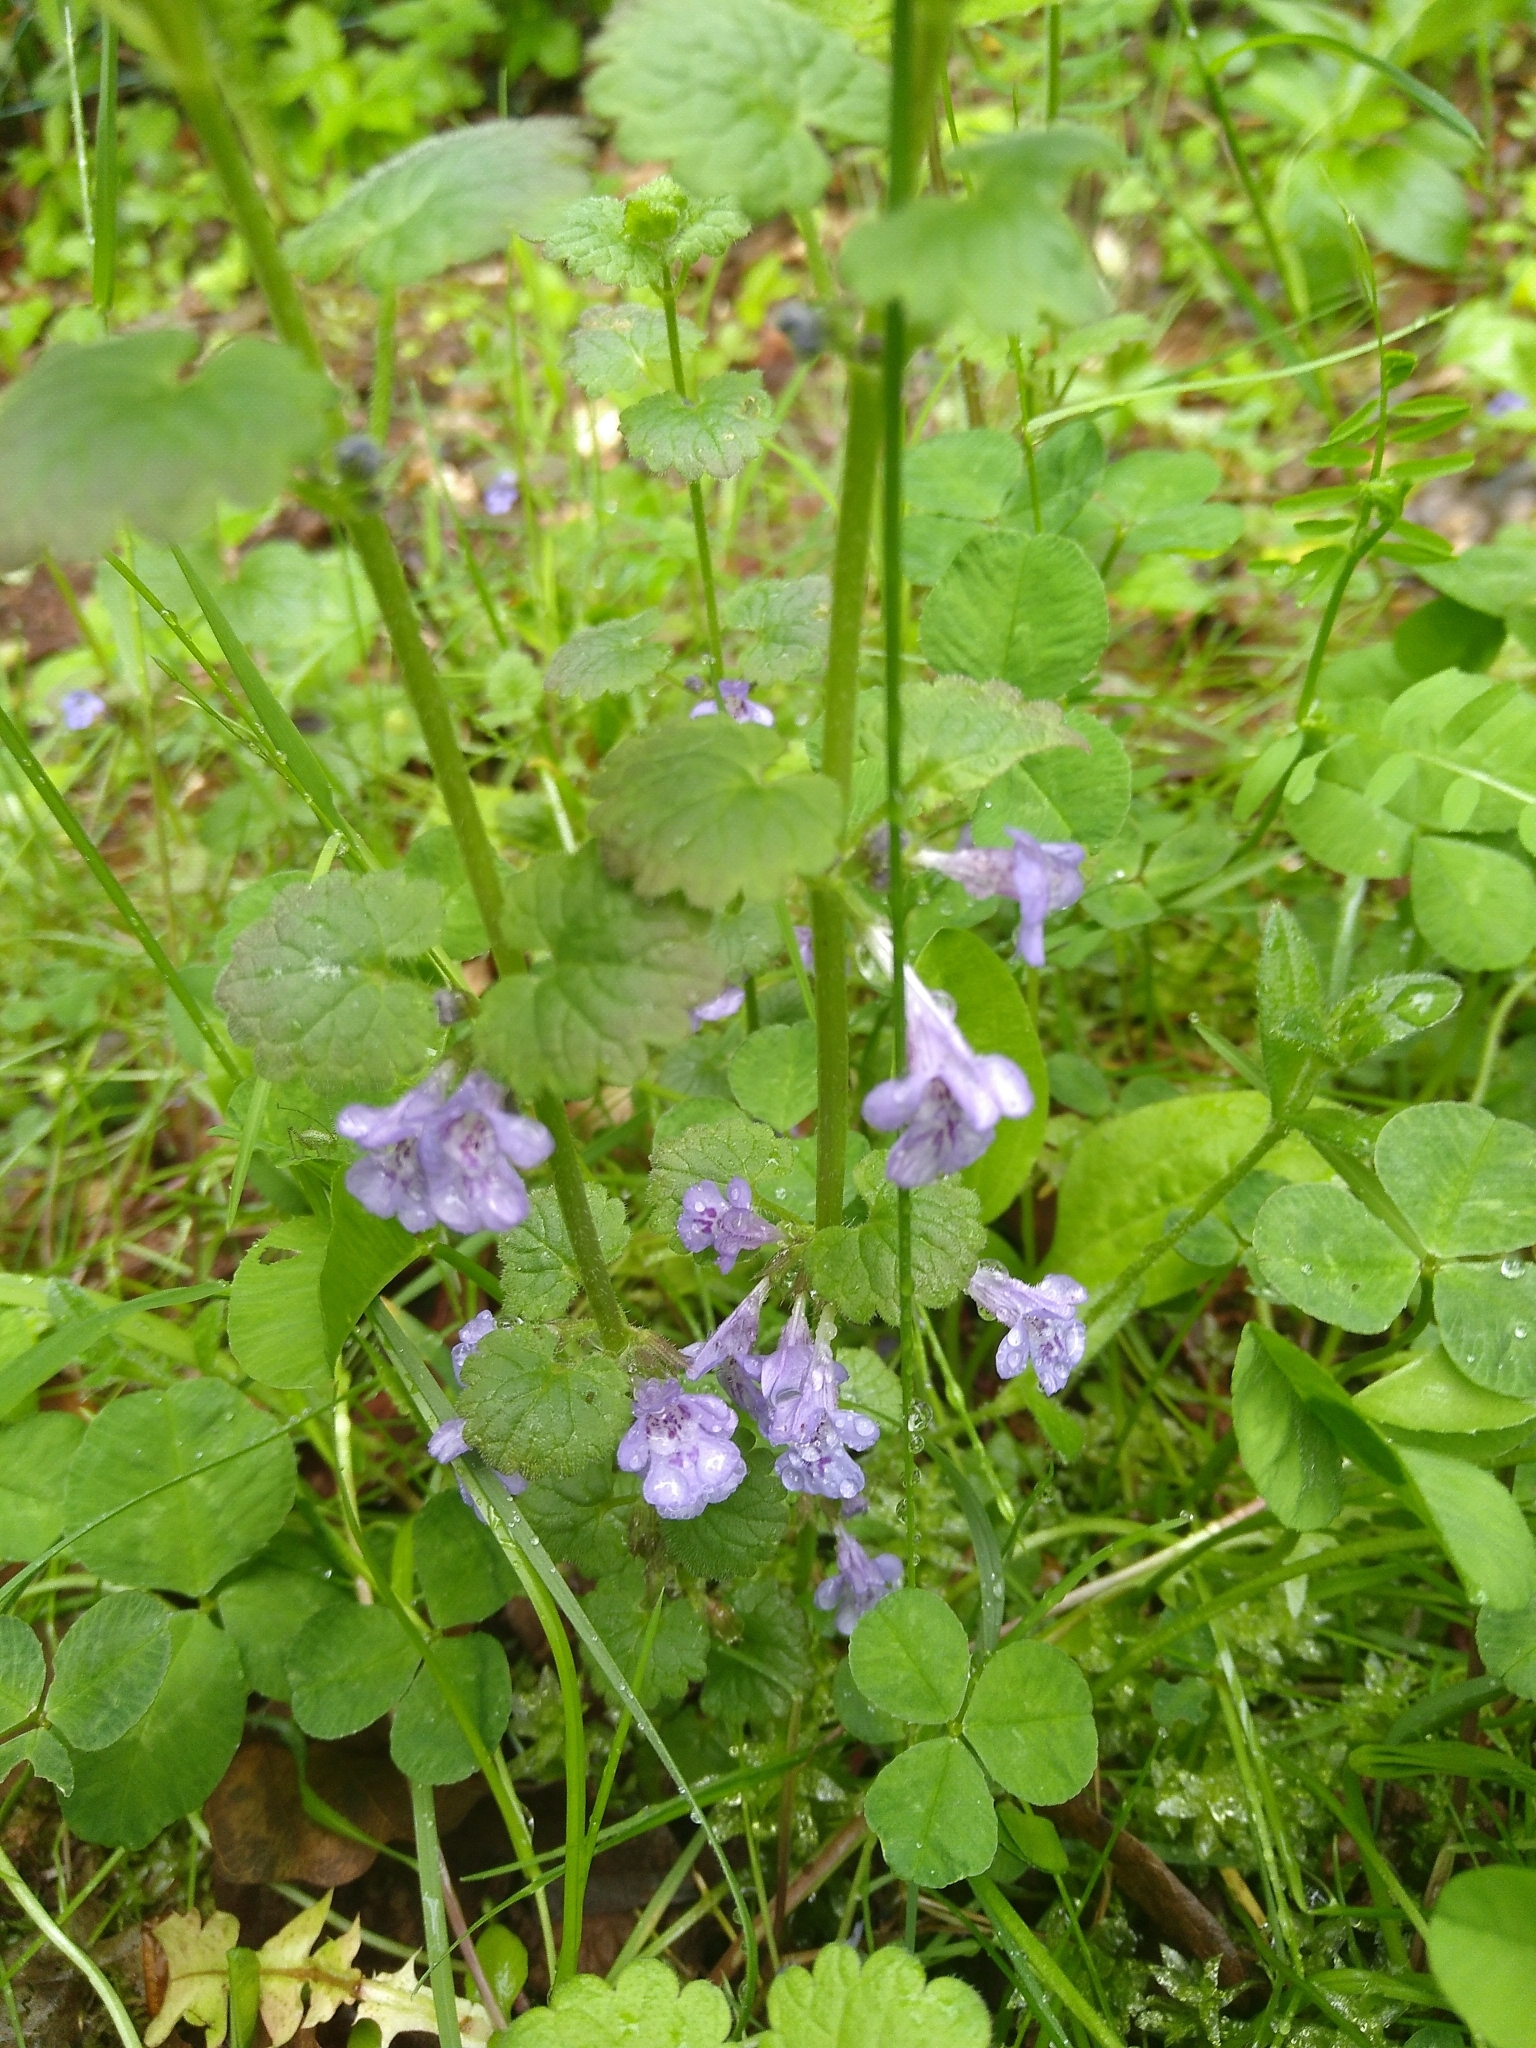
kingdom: Plantae
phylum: Tracheophyta
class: Magnoliopsida
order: Lamiales
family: Lamiaceae
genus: Glechoma
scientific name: Glechoma hederacea
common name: Ground ivy
